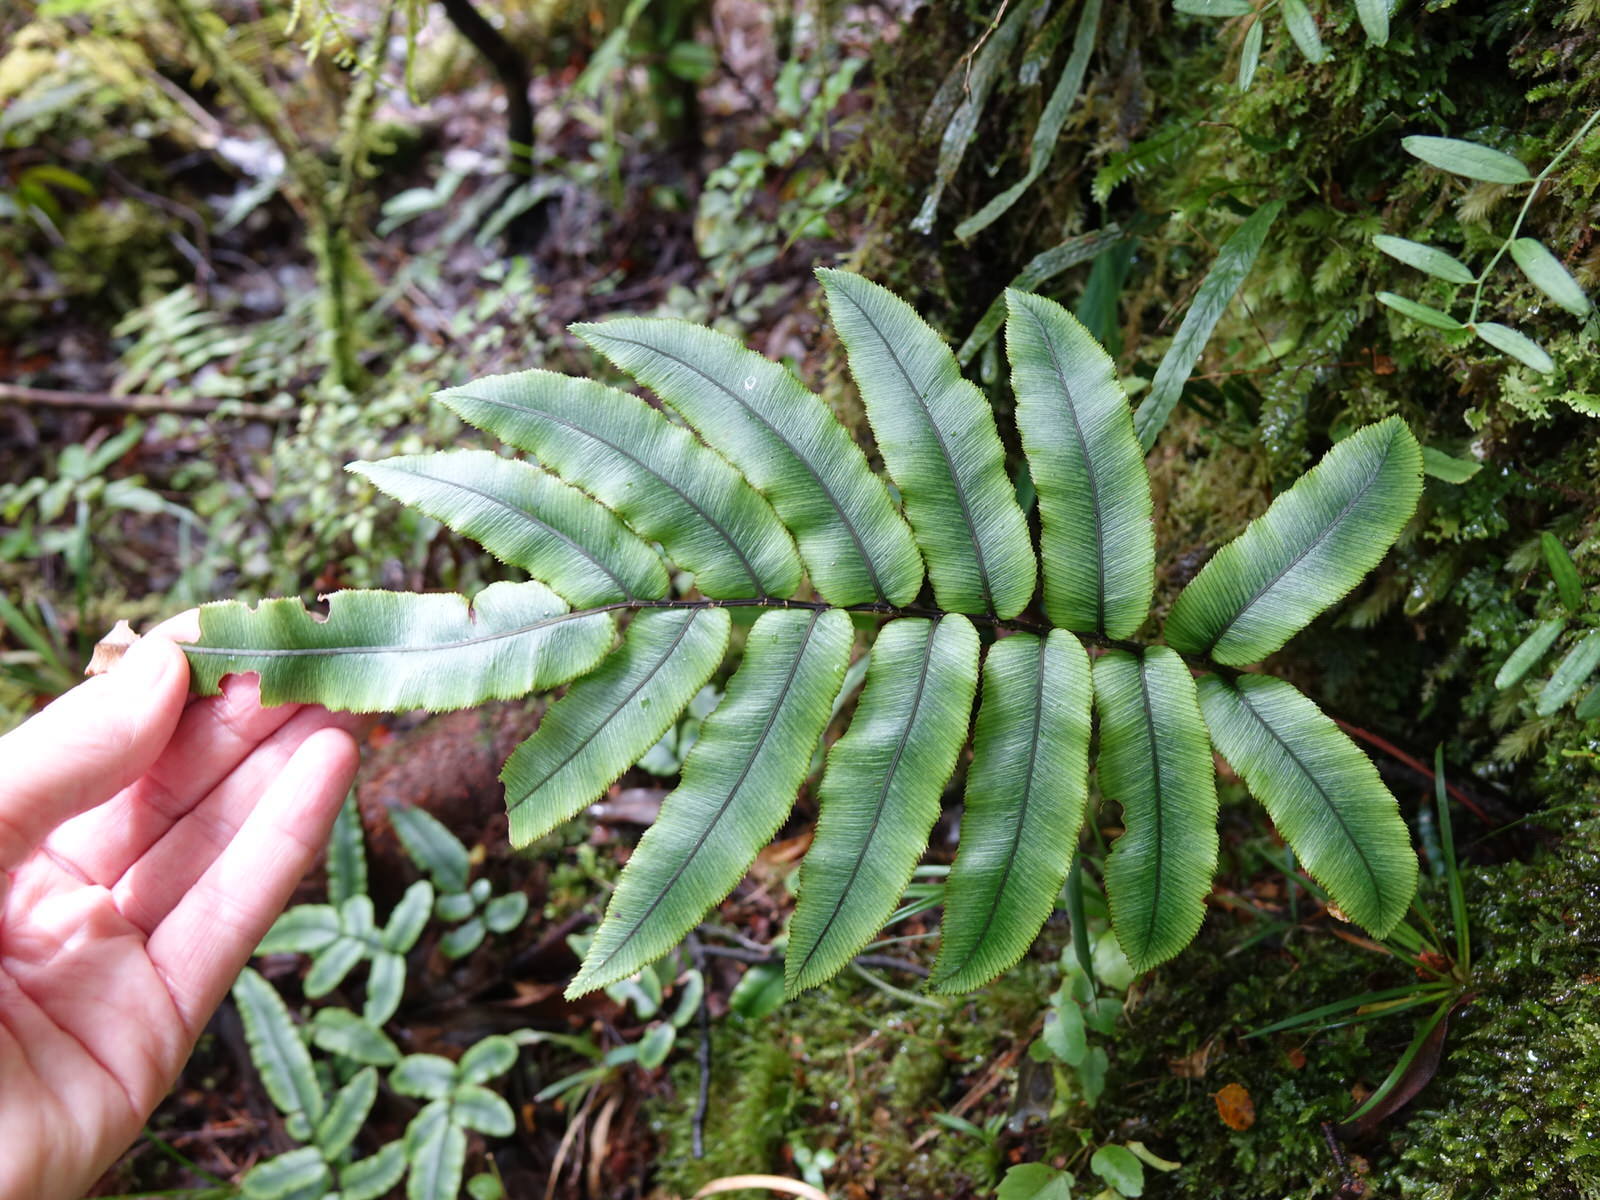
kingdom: Plantae
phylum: Tracheophyta
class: Polypodiopsida
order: Polypodiales
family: Blechnaceae
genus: Parablechnum
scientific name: Parablechnum procerum
